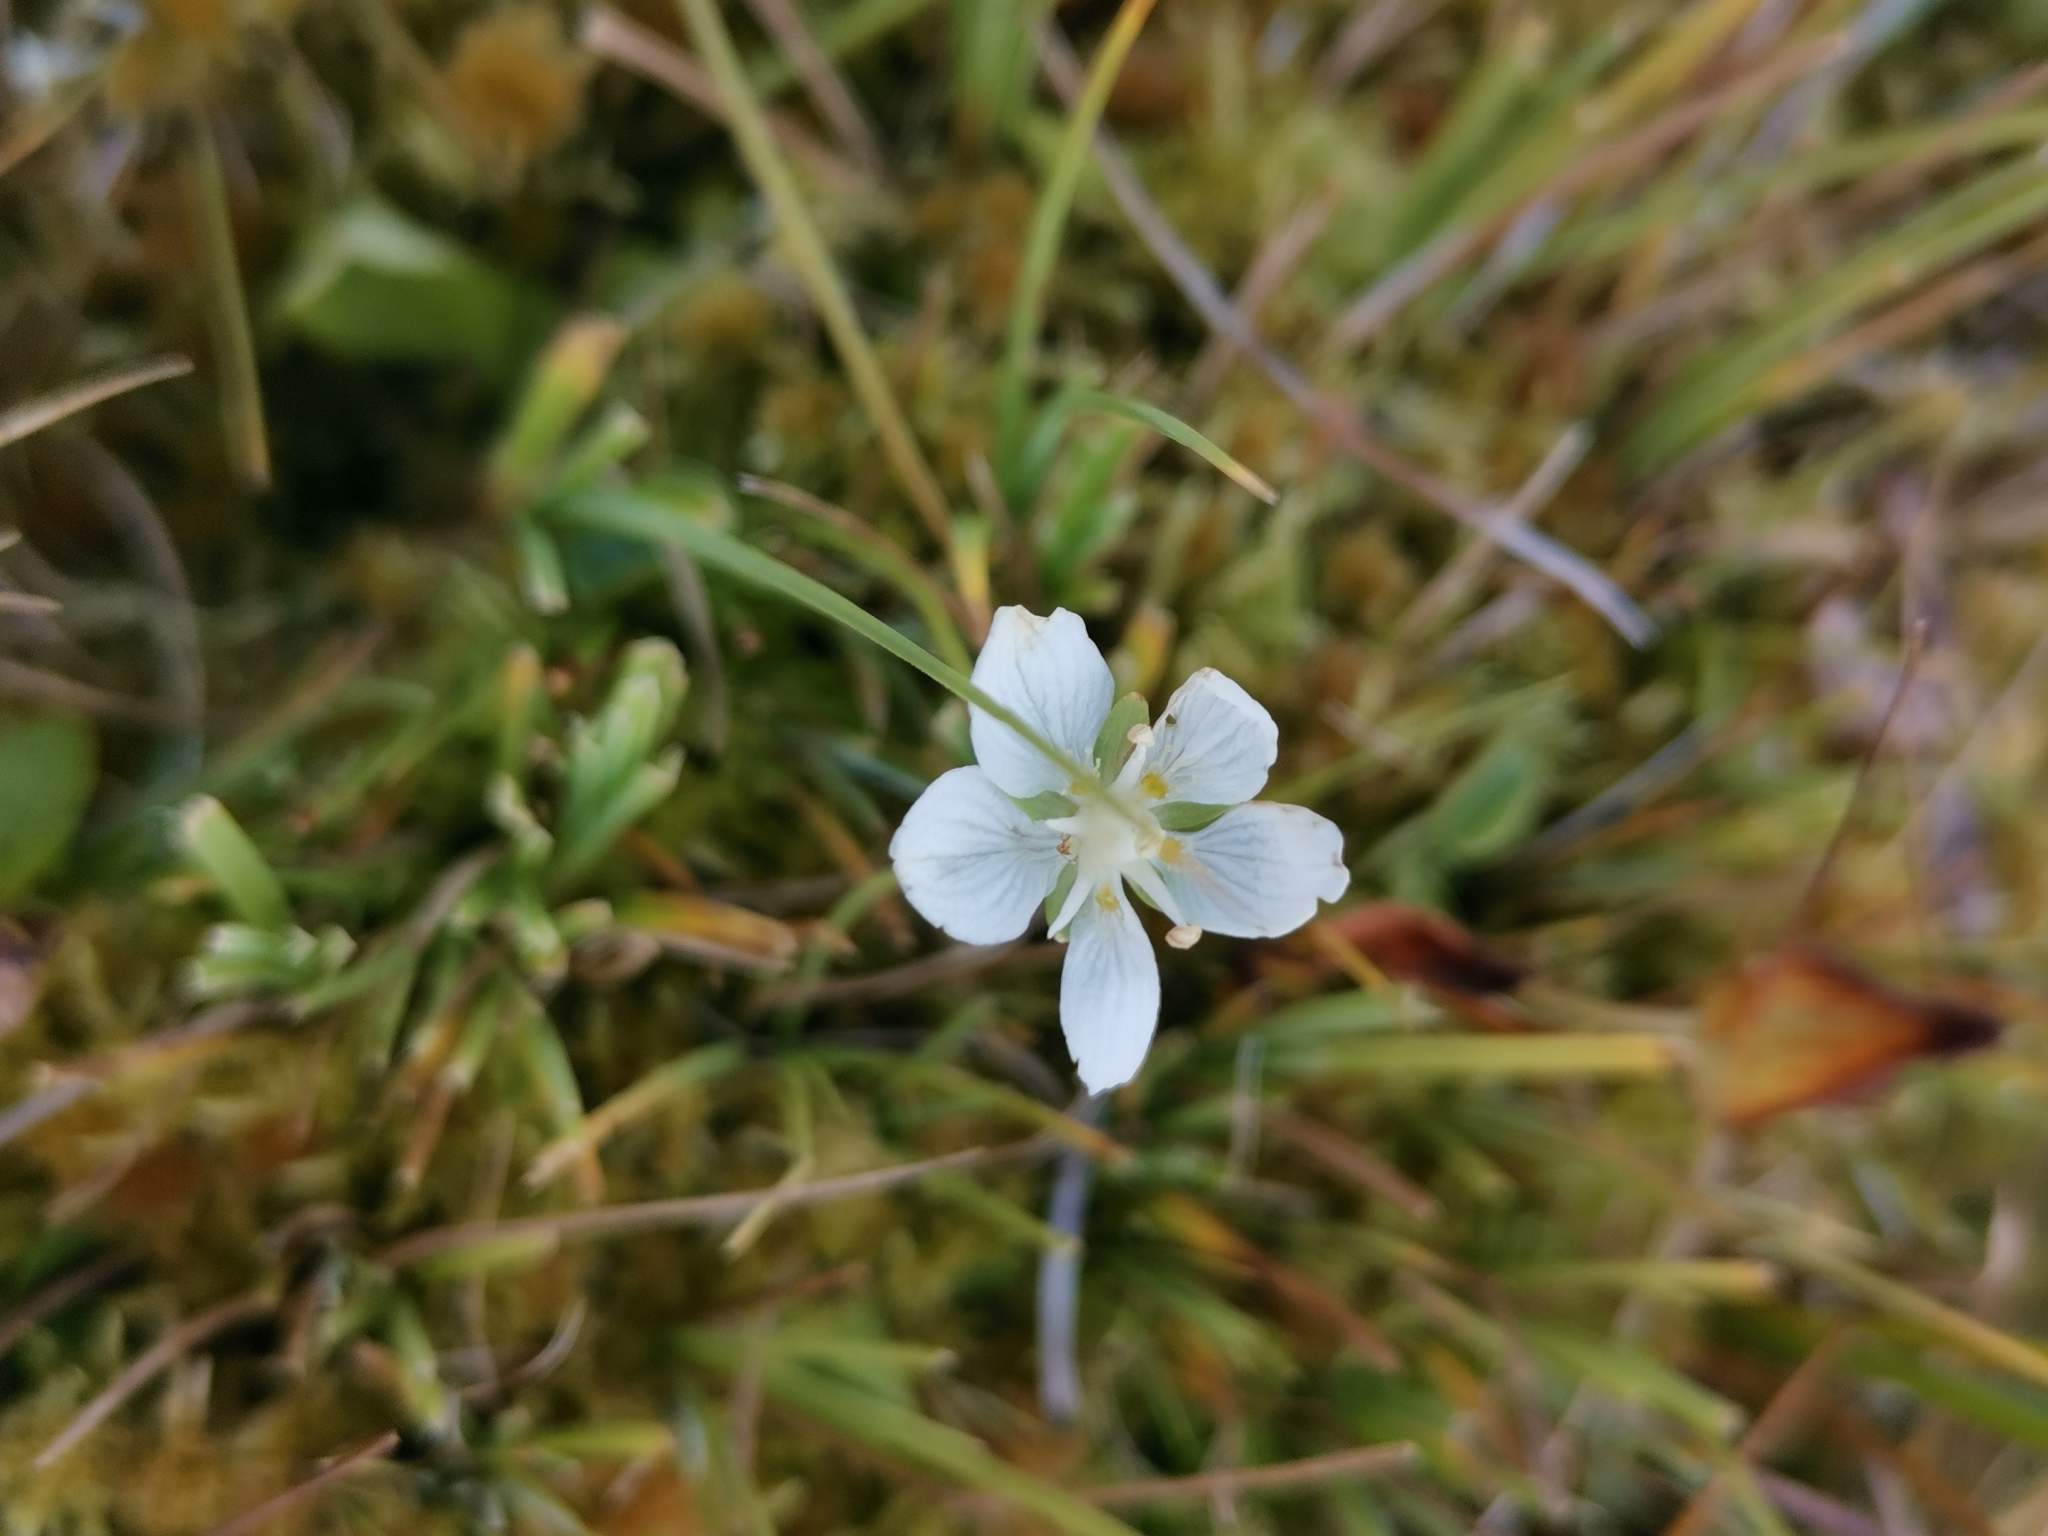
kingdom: Plantae
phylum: Tracheophyta
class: Magnoliopsida
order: Celastrales
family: Parnassiaceae
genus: Parnassia
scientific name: Parnassia palustris
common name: Grass-of-parnassus
